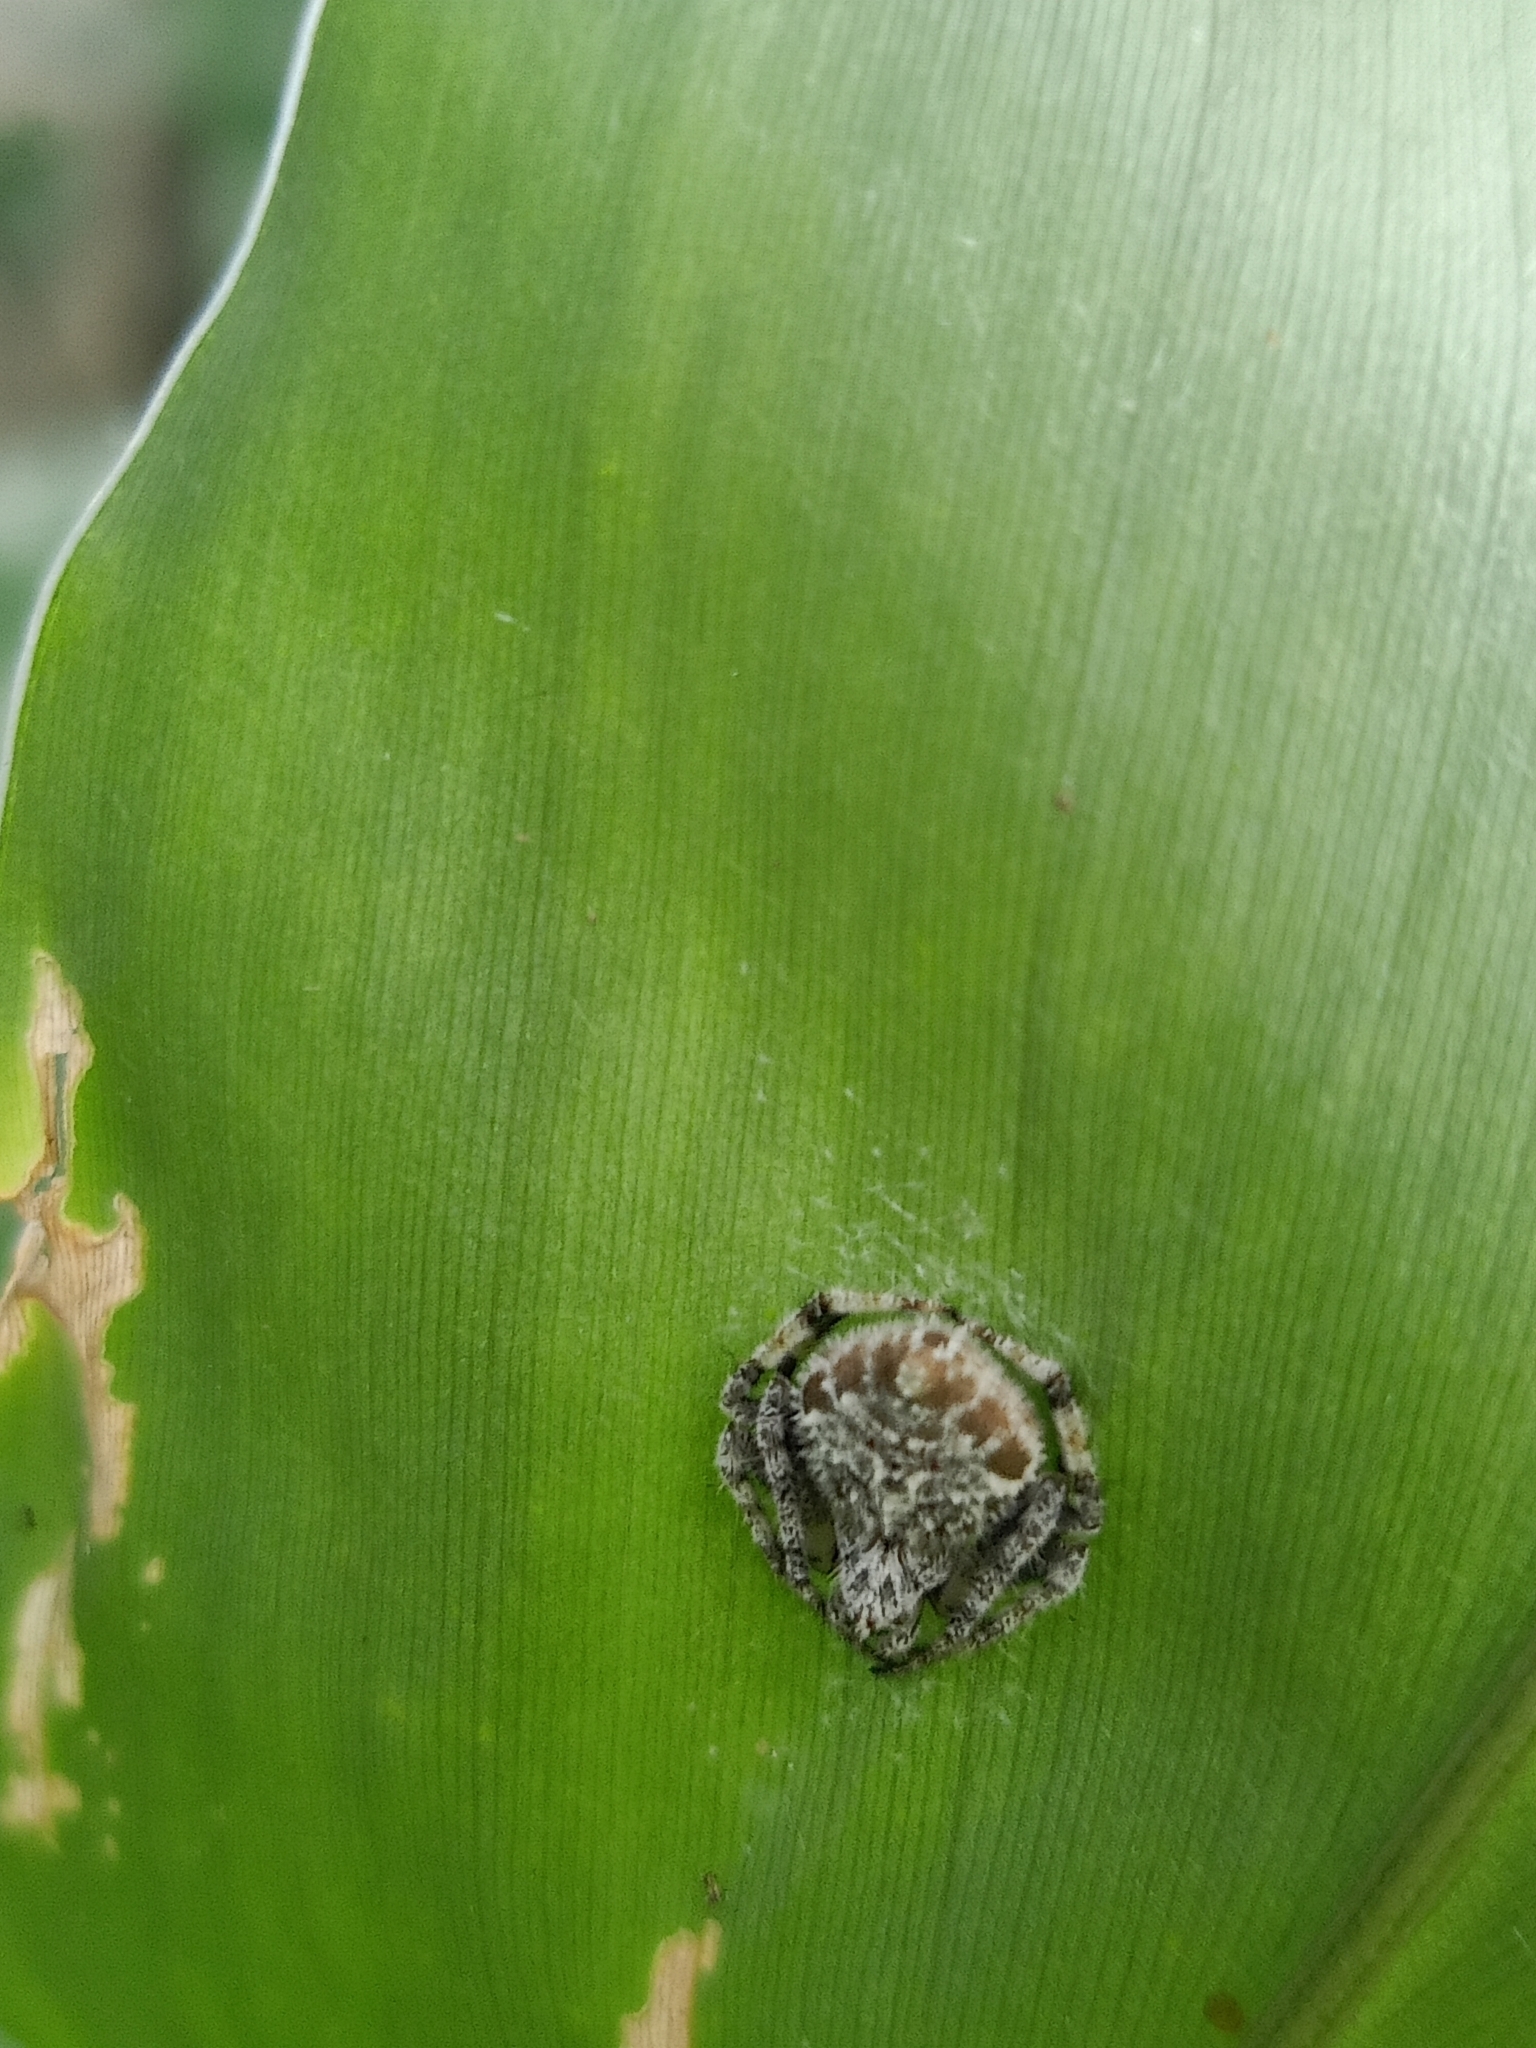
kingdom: Animalia
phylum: Arthropoda
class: Arachnida
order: Araneae
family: Araneidae
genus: Eriovixia
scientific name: Eriovixia laglaizei
